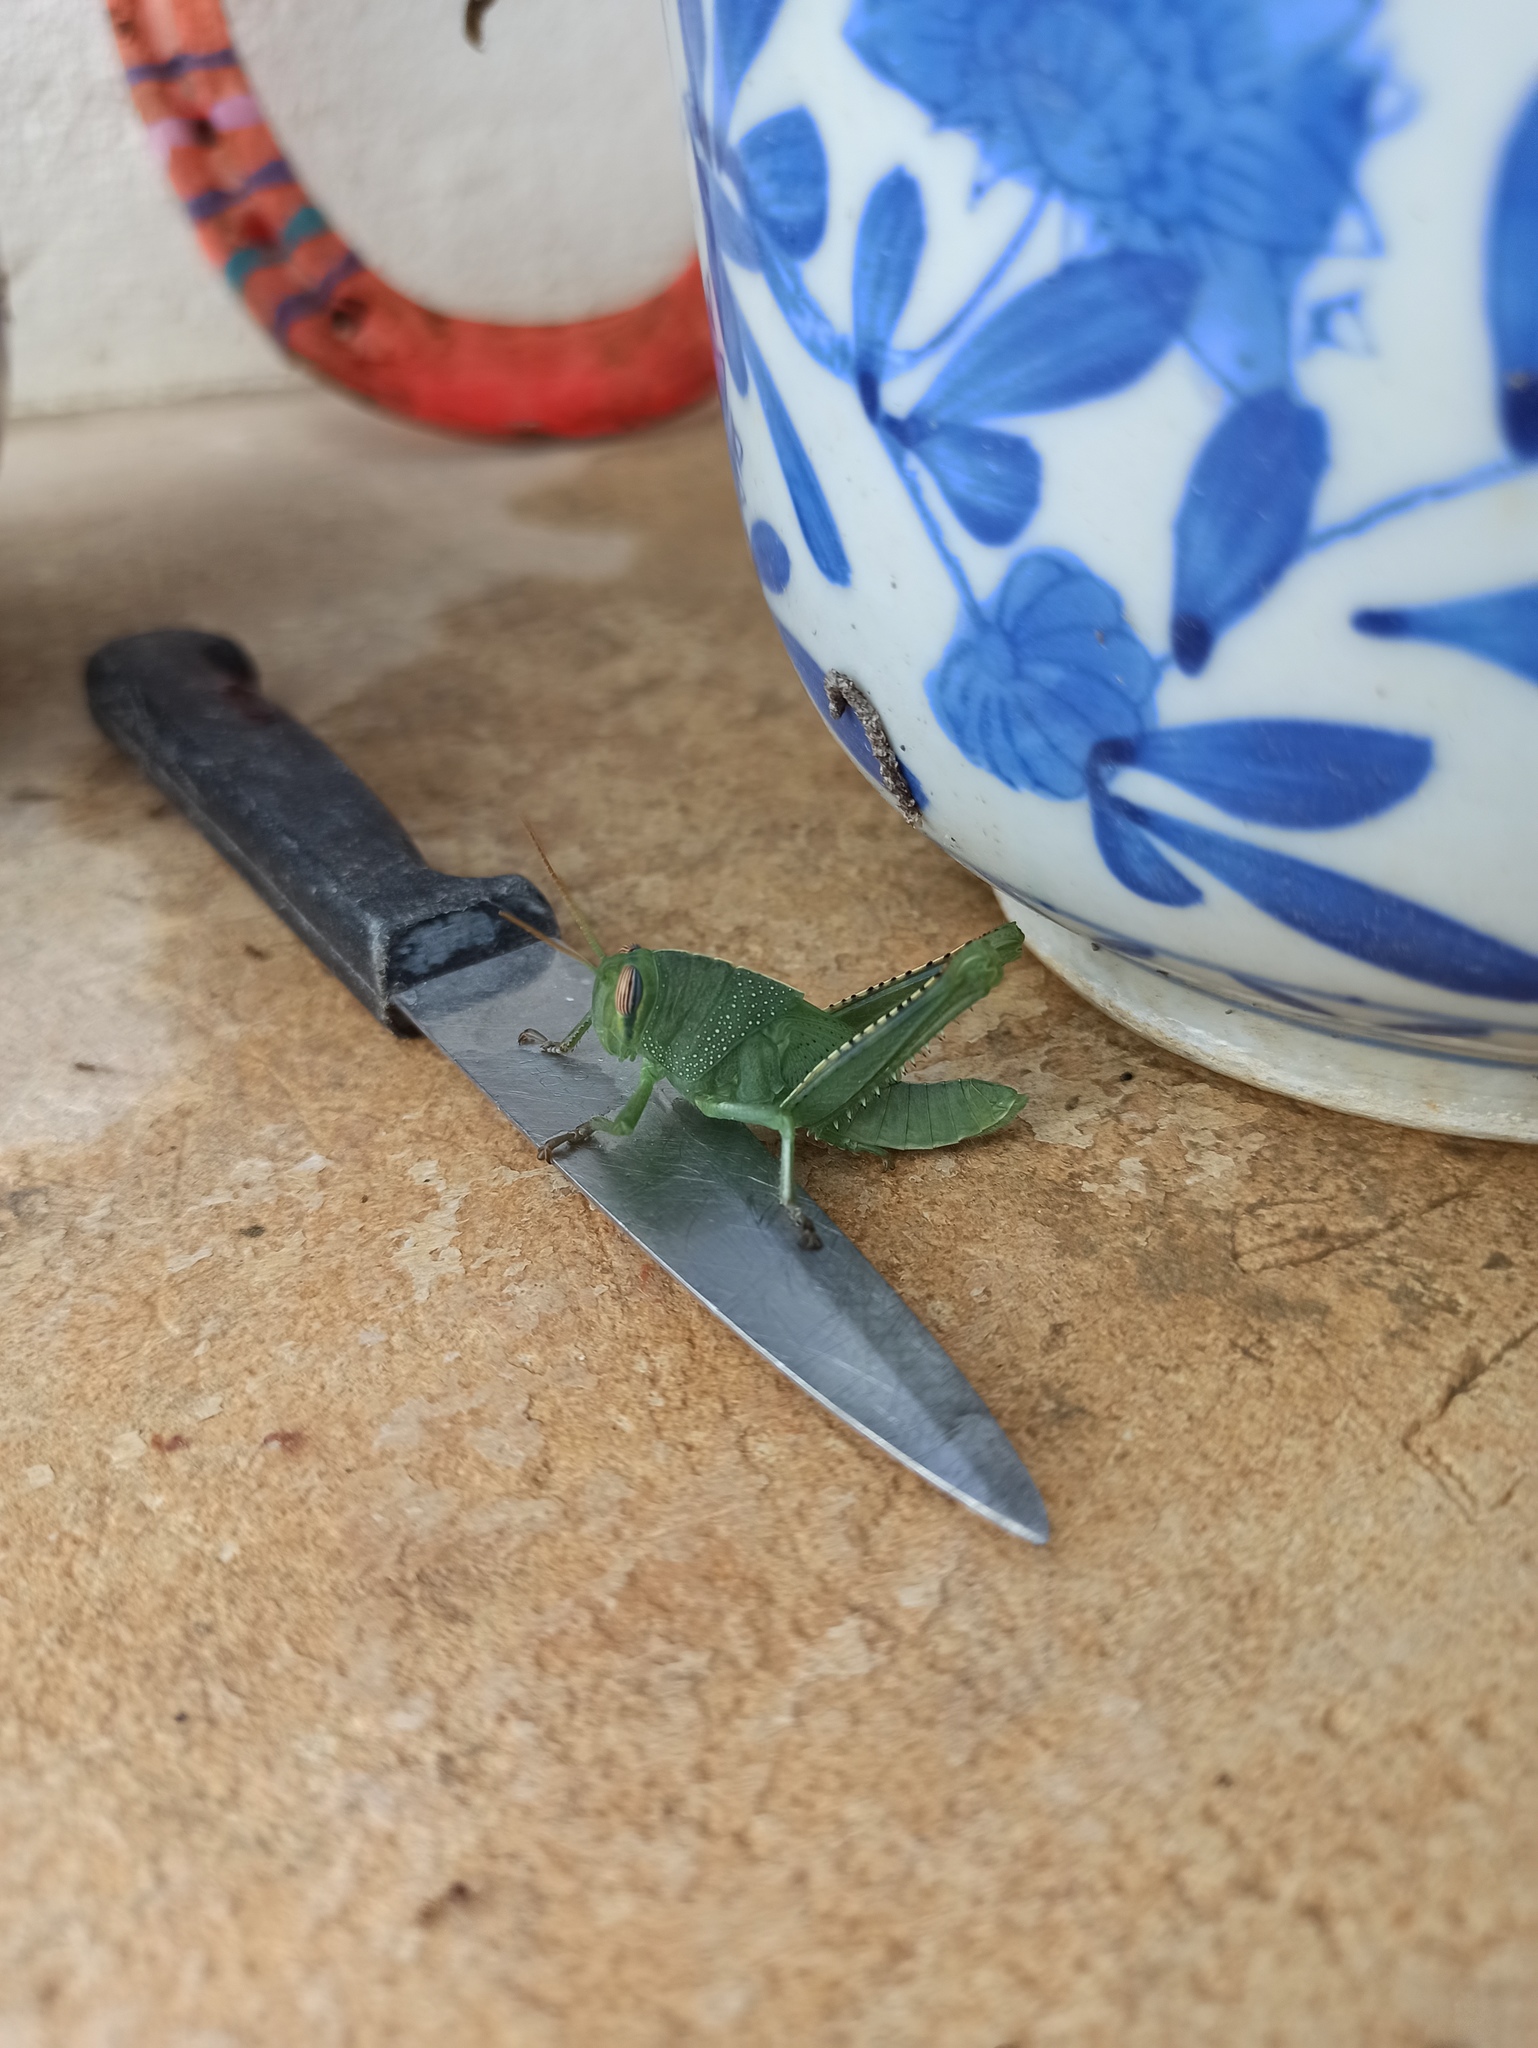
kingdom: Animalia
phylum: Arthropoda
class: Insecta
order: Orthoptera
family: Acrididae
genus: Anacridium
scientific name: Anacridium aegyptium
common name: Egyptian grasshopper
